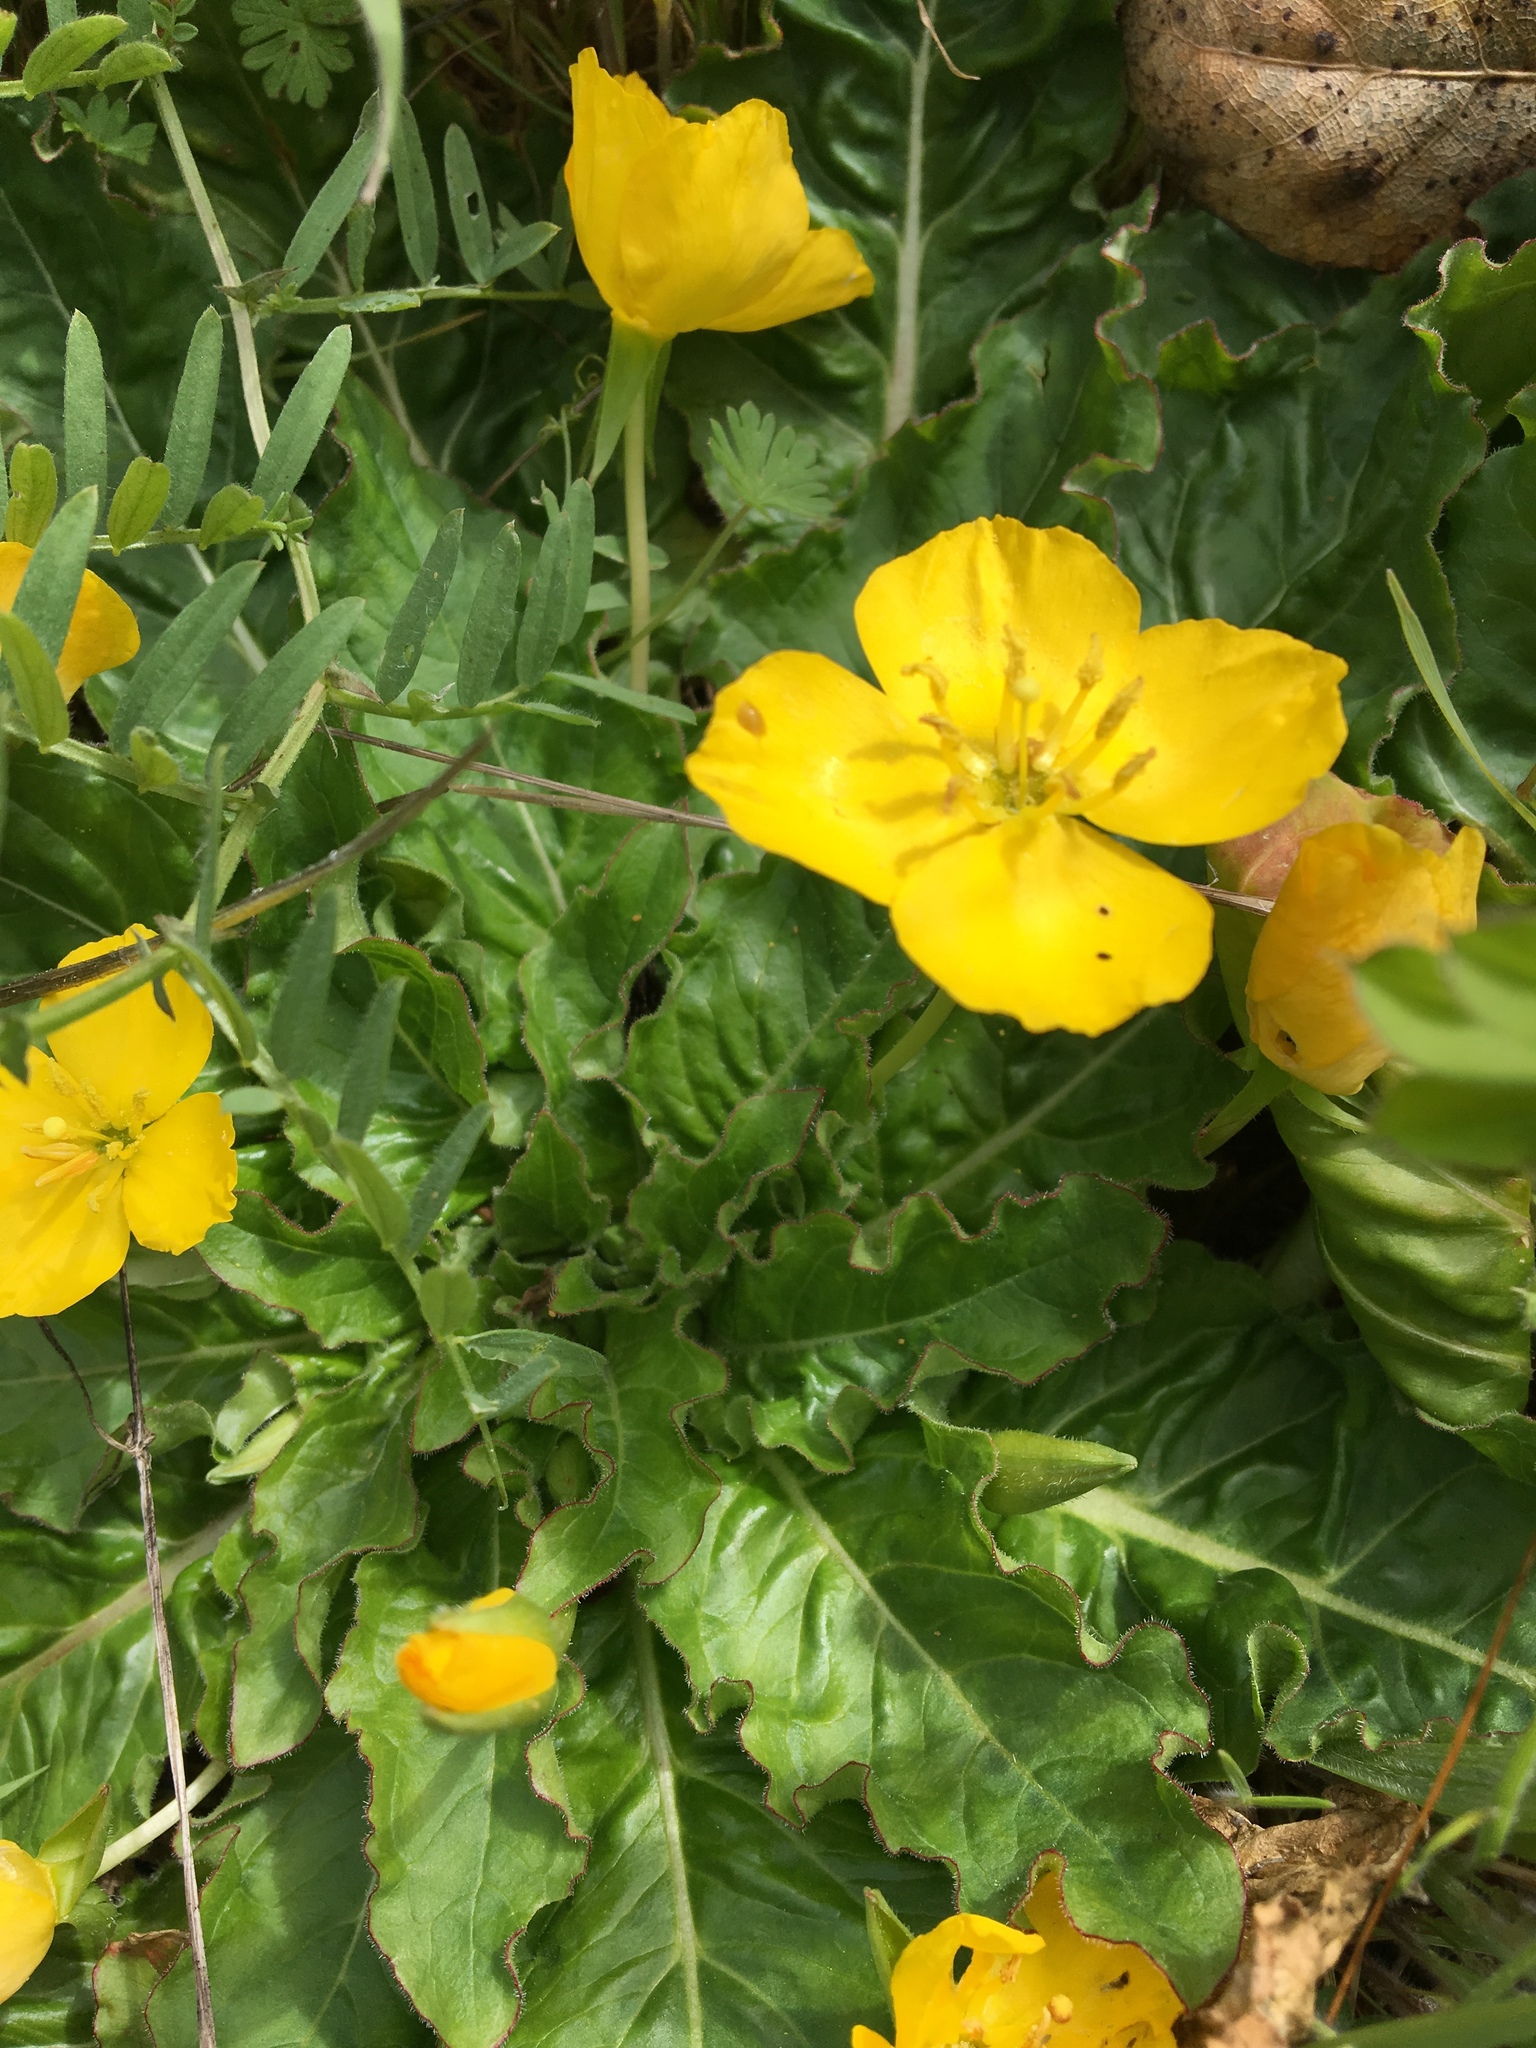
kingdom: Plantae
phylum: Tracheophyta
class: Magnoliopsida
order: Myrtales
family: Onagraceae
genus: Taraxia
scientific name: Taraxia ovata
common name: Goldeneggs
